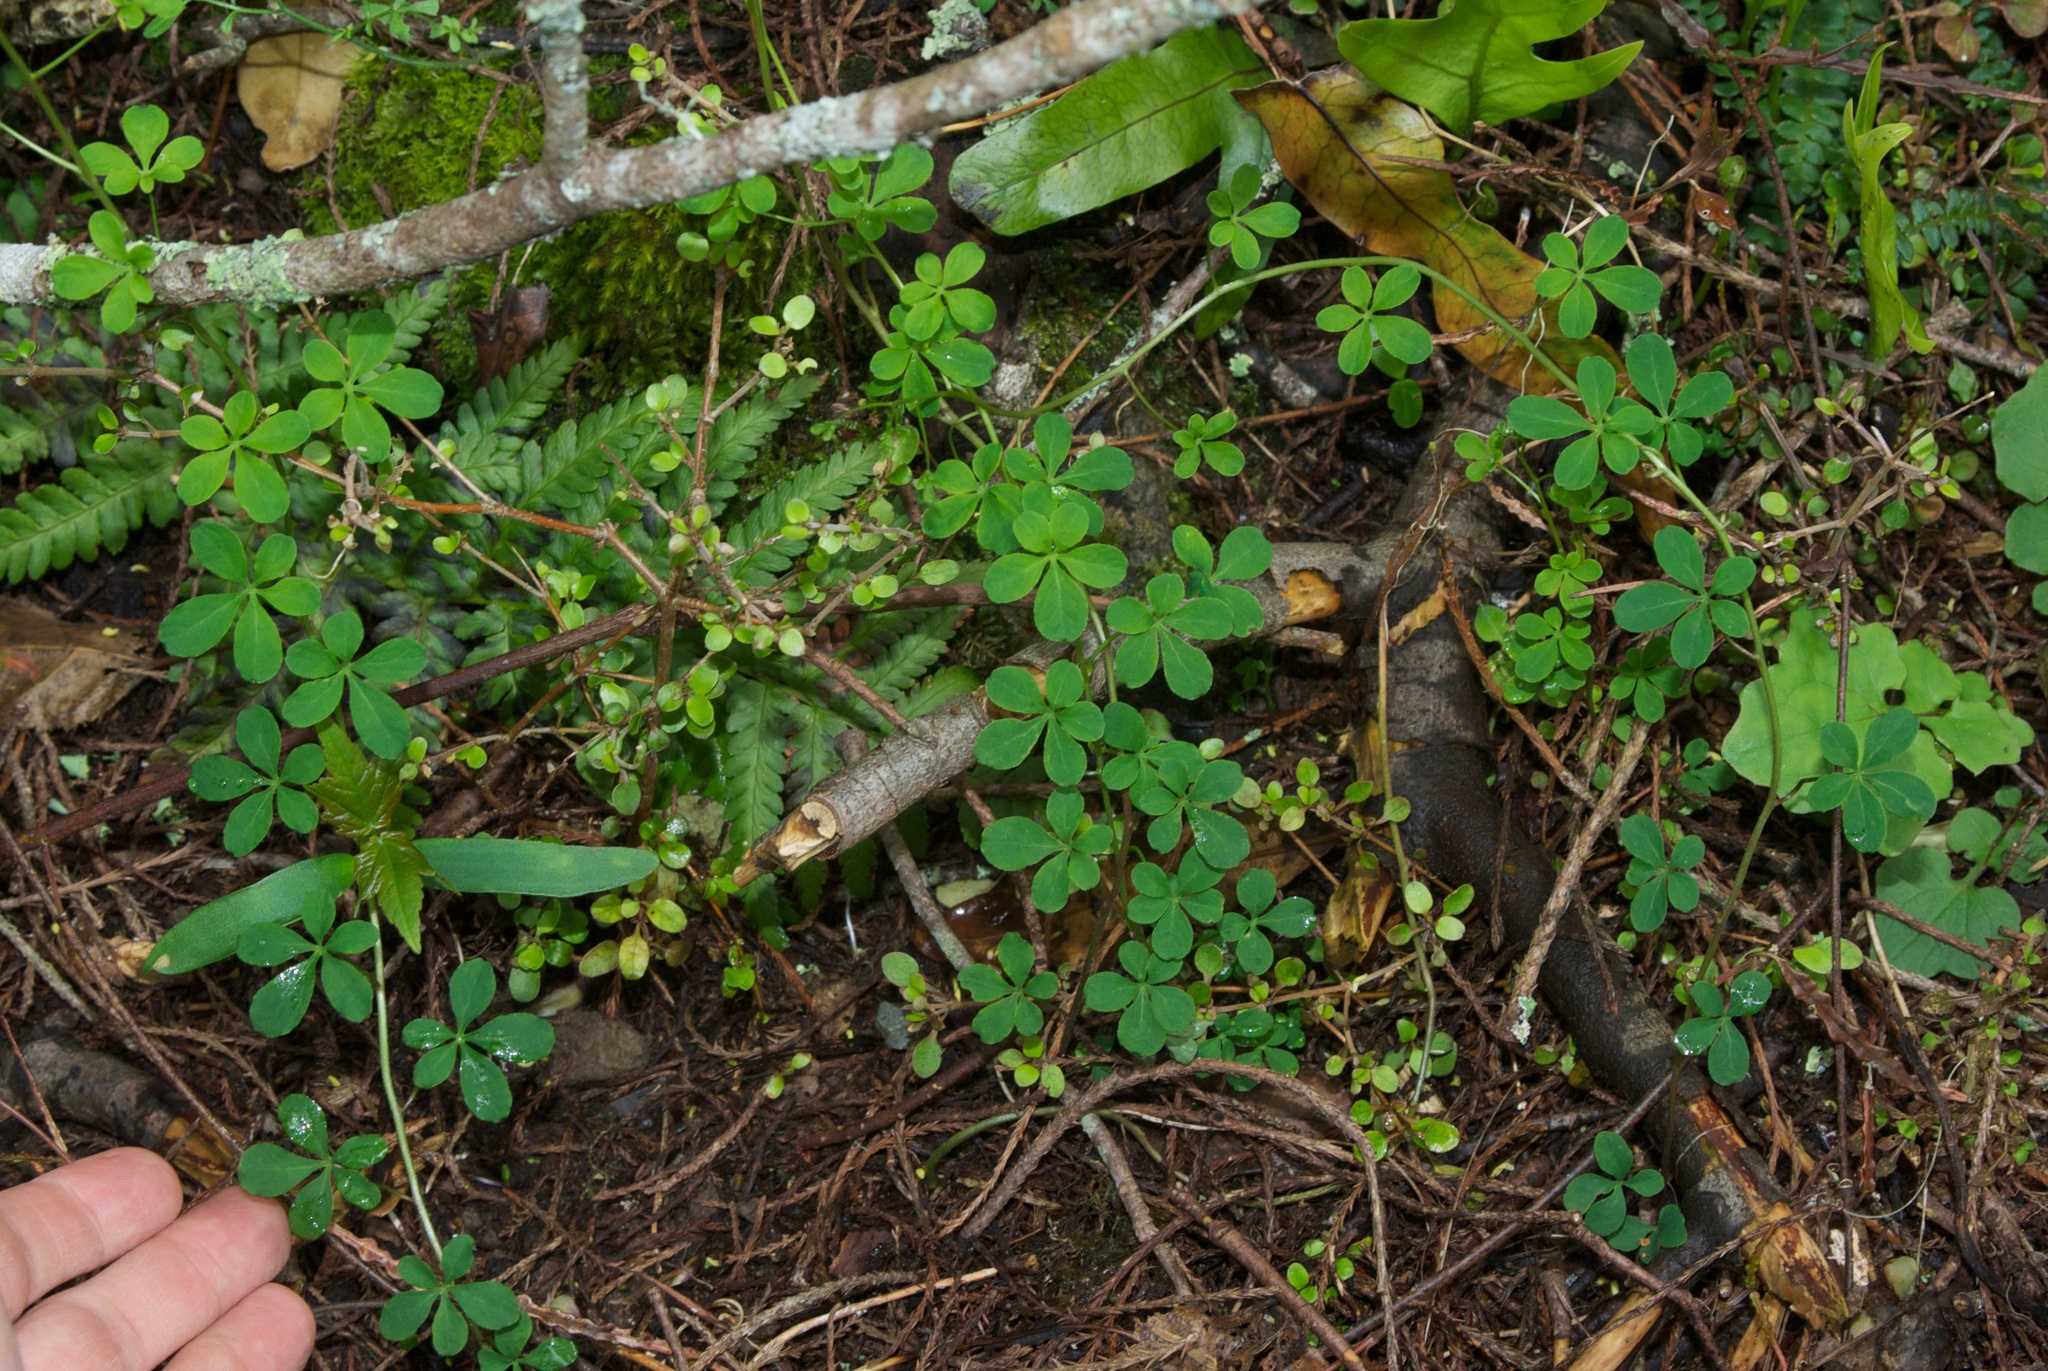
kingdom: Plantae
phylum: Tracheophyta
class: Magnoliopsida
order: Brassicales
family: Tropaeolaceae
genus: Tropaeolum
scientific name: Tropaeolum speciosum
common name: Flame nasturtium
